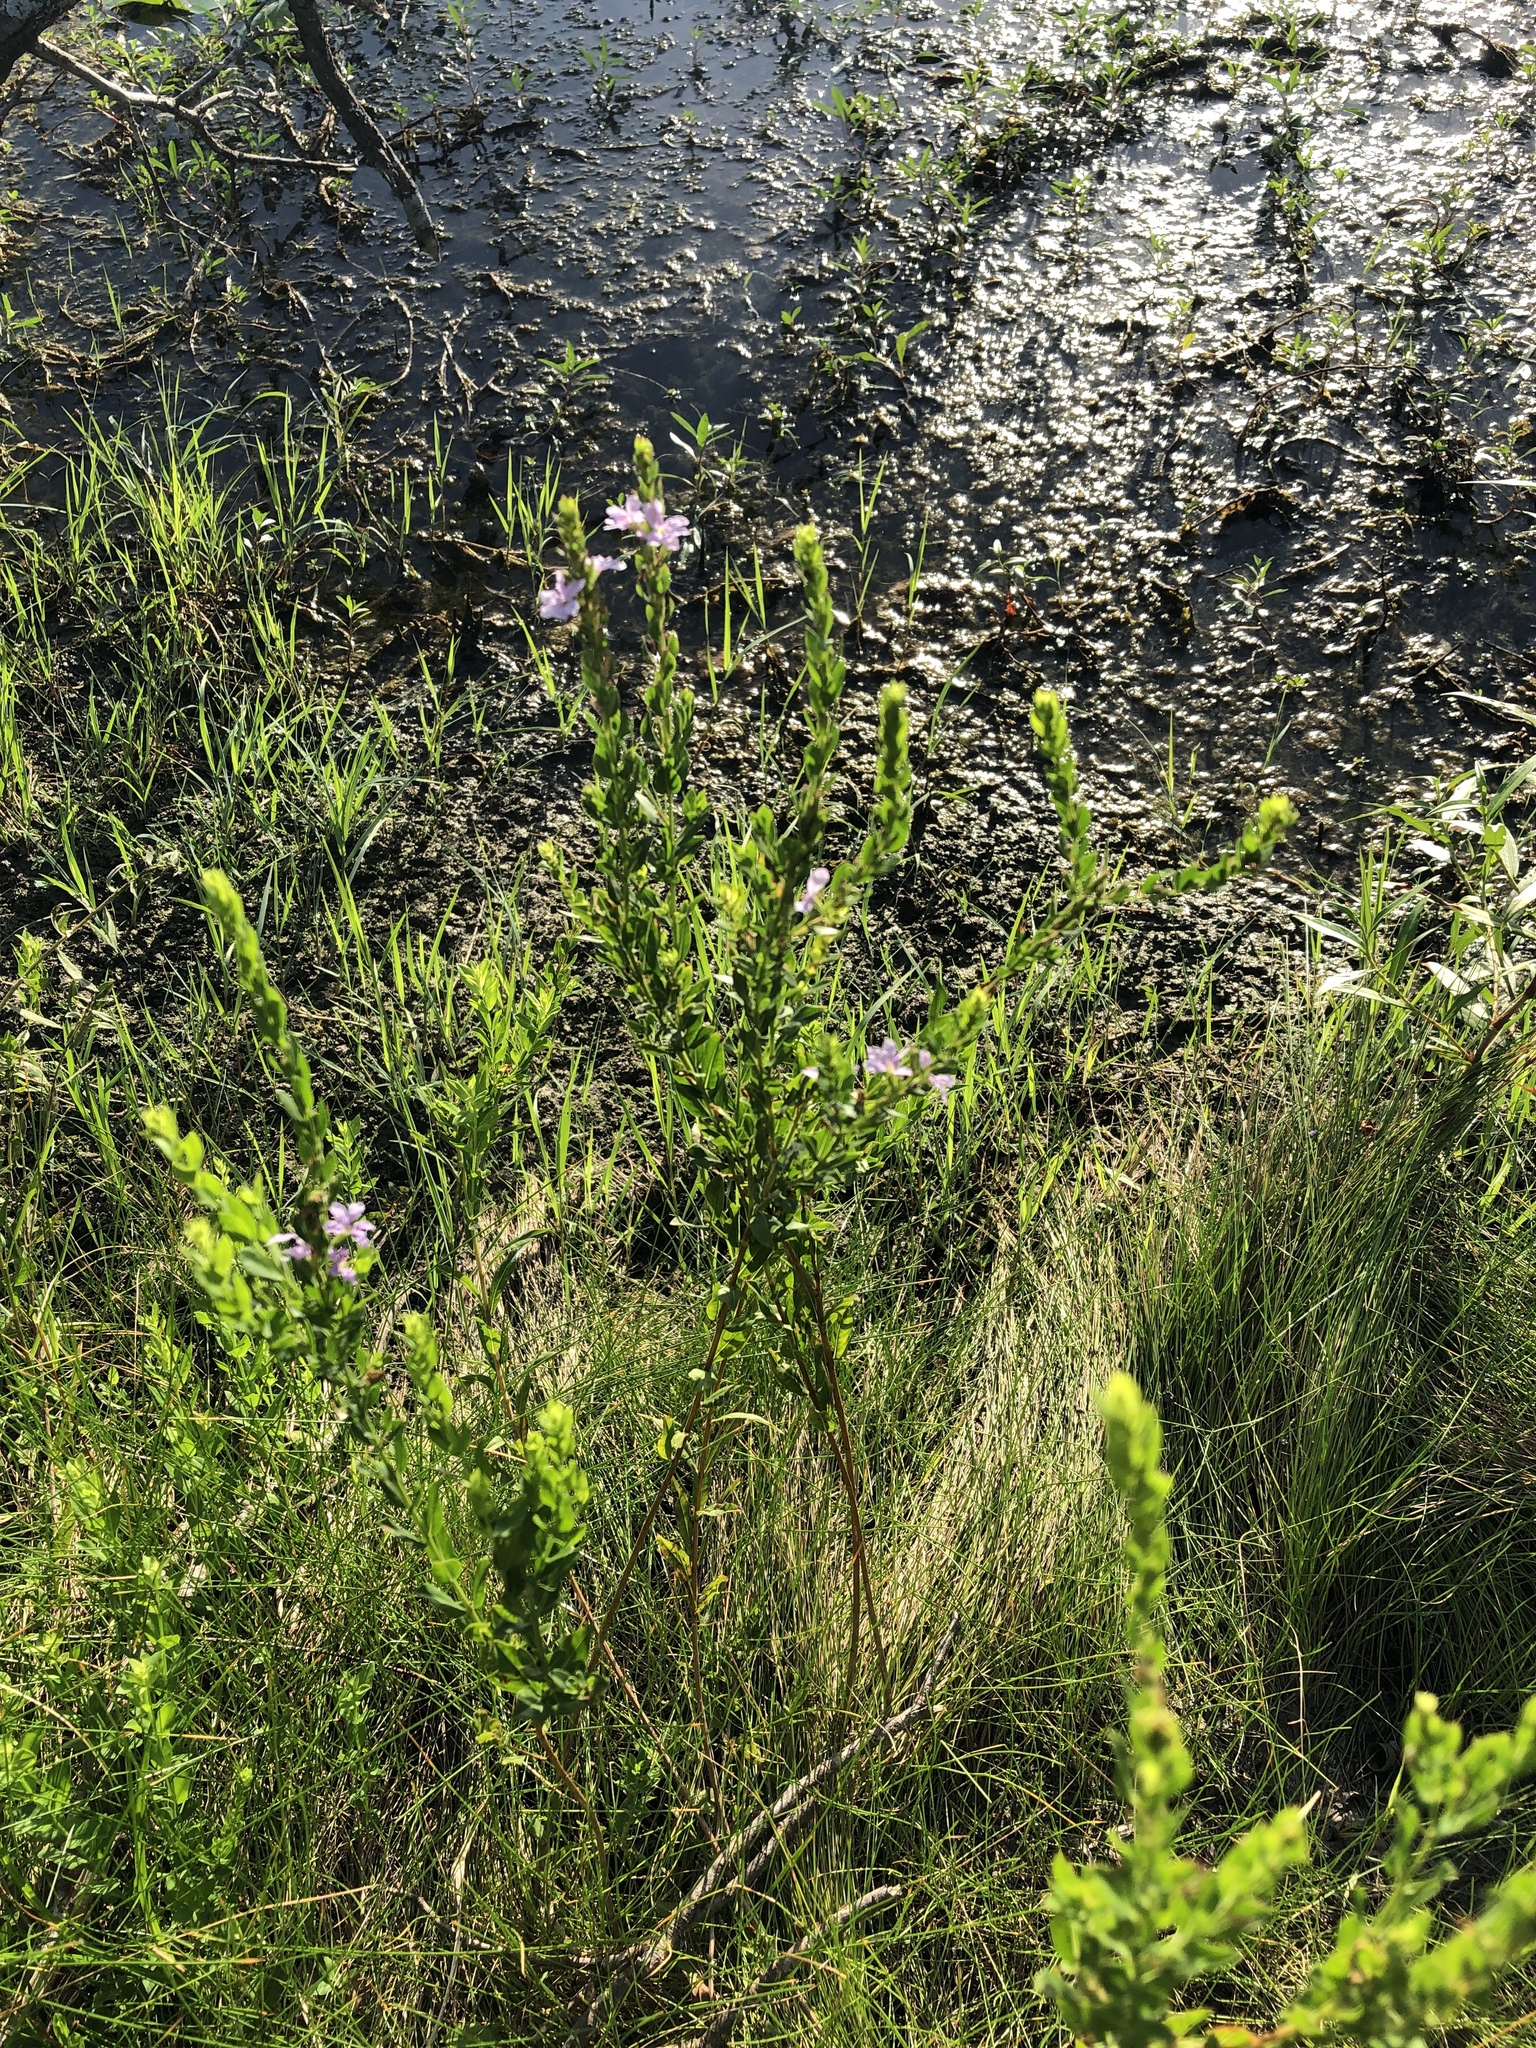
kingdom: Plantae
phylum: Tracheophyta
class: Magnoliopsida
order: Myrtales
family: Lythraceae
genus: Lythrum
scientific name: Lythrum alatum
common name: Winged loosestrife
